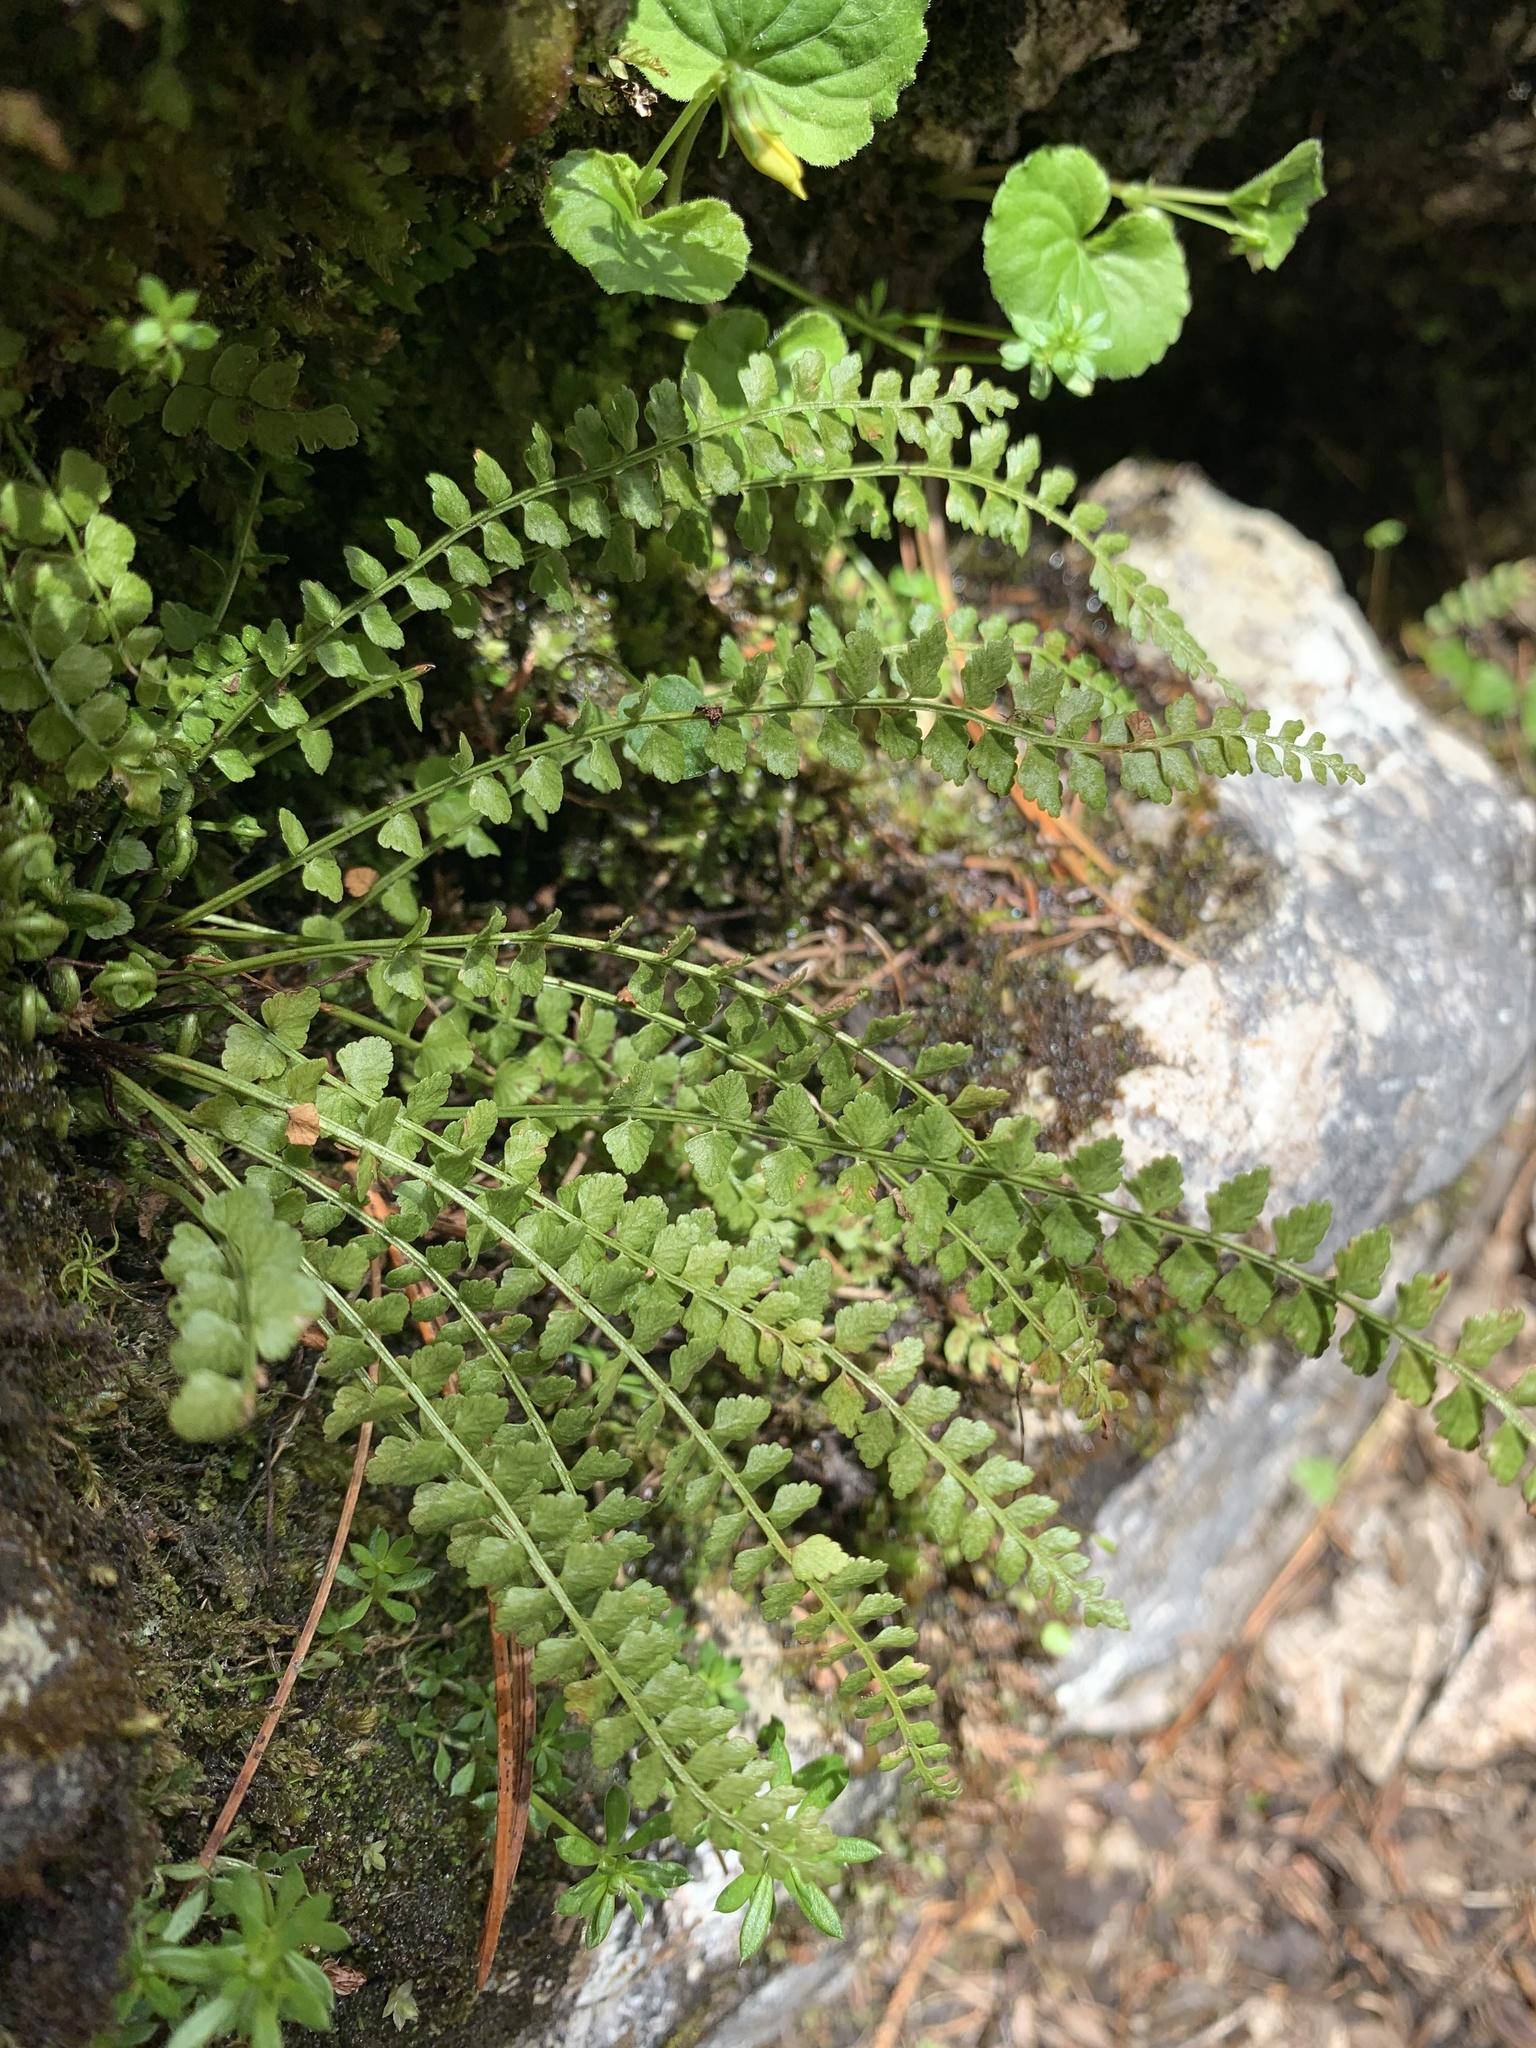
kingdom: Plantae
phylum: Tracheophyta
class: Polypodiopsida
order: Polypodiales
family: Aspleniaceae
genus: Asplenium
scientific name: Asplenium viride
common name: Green spleenwort
